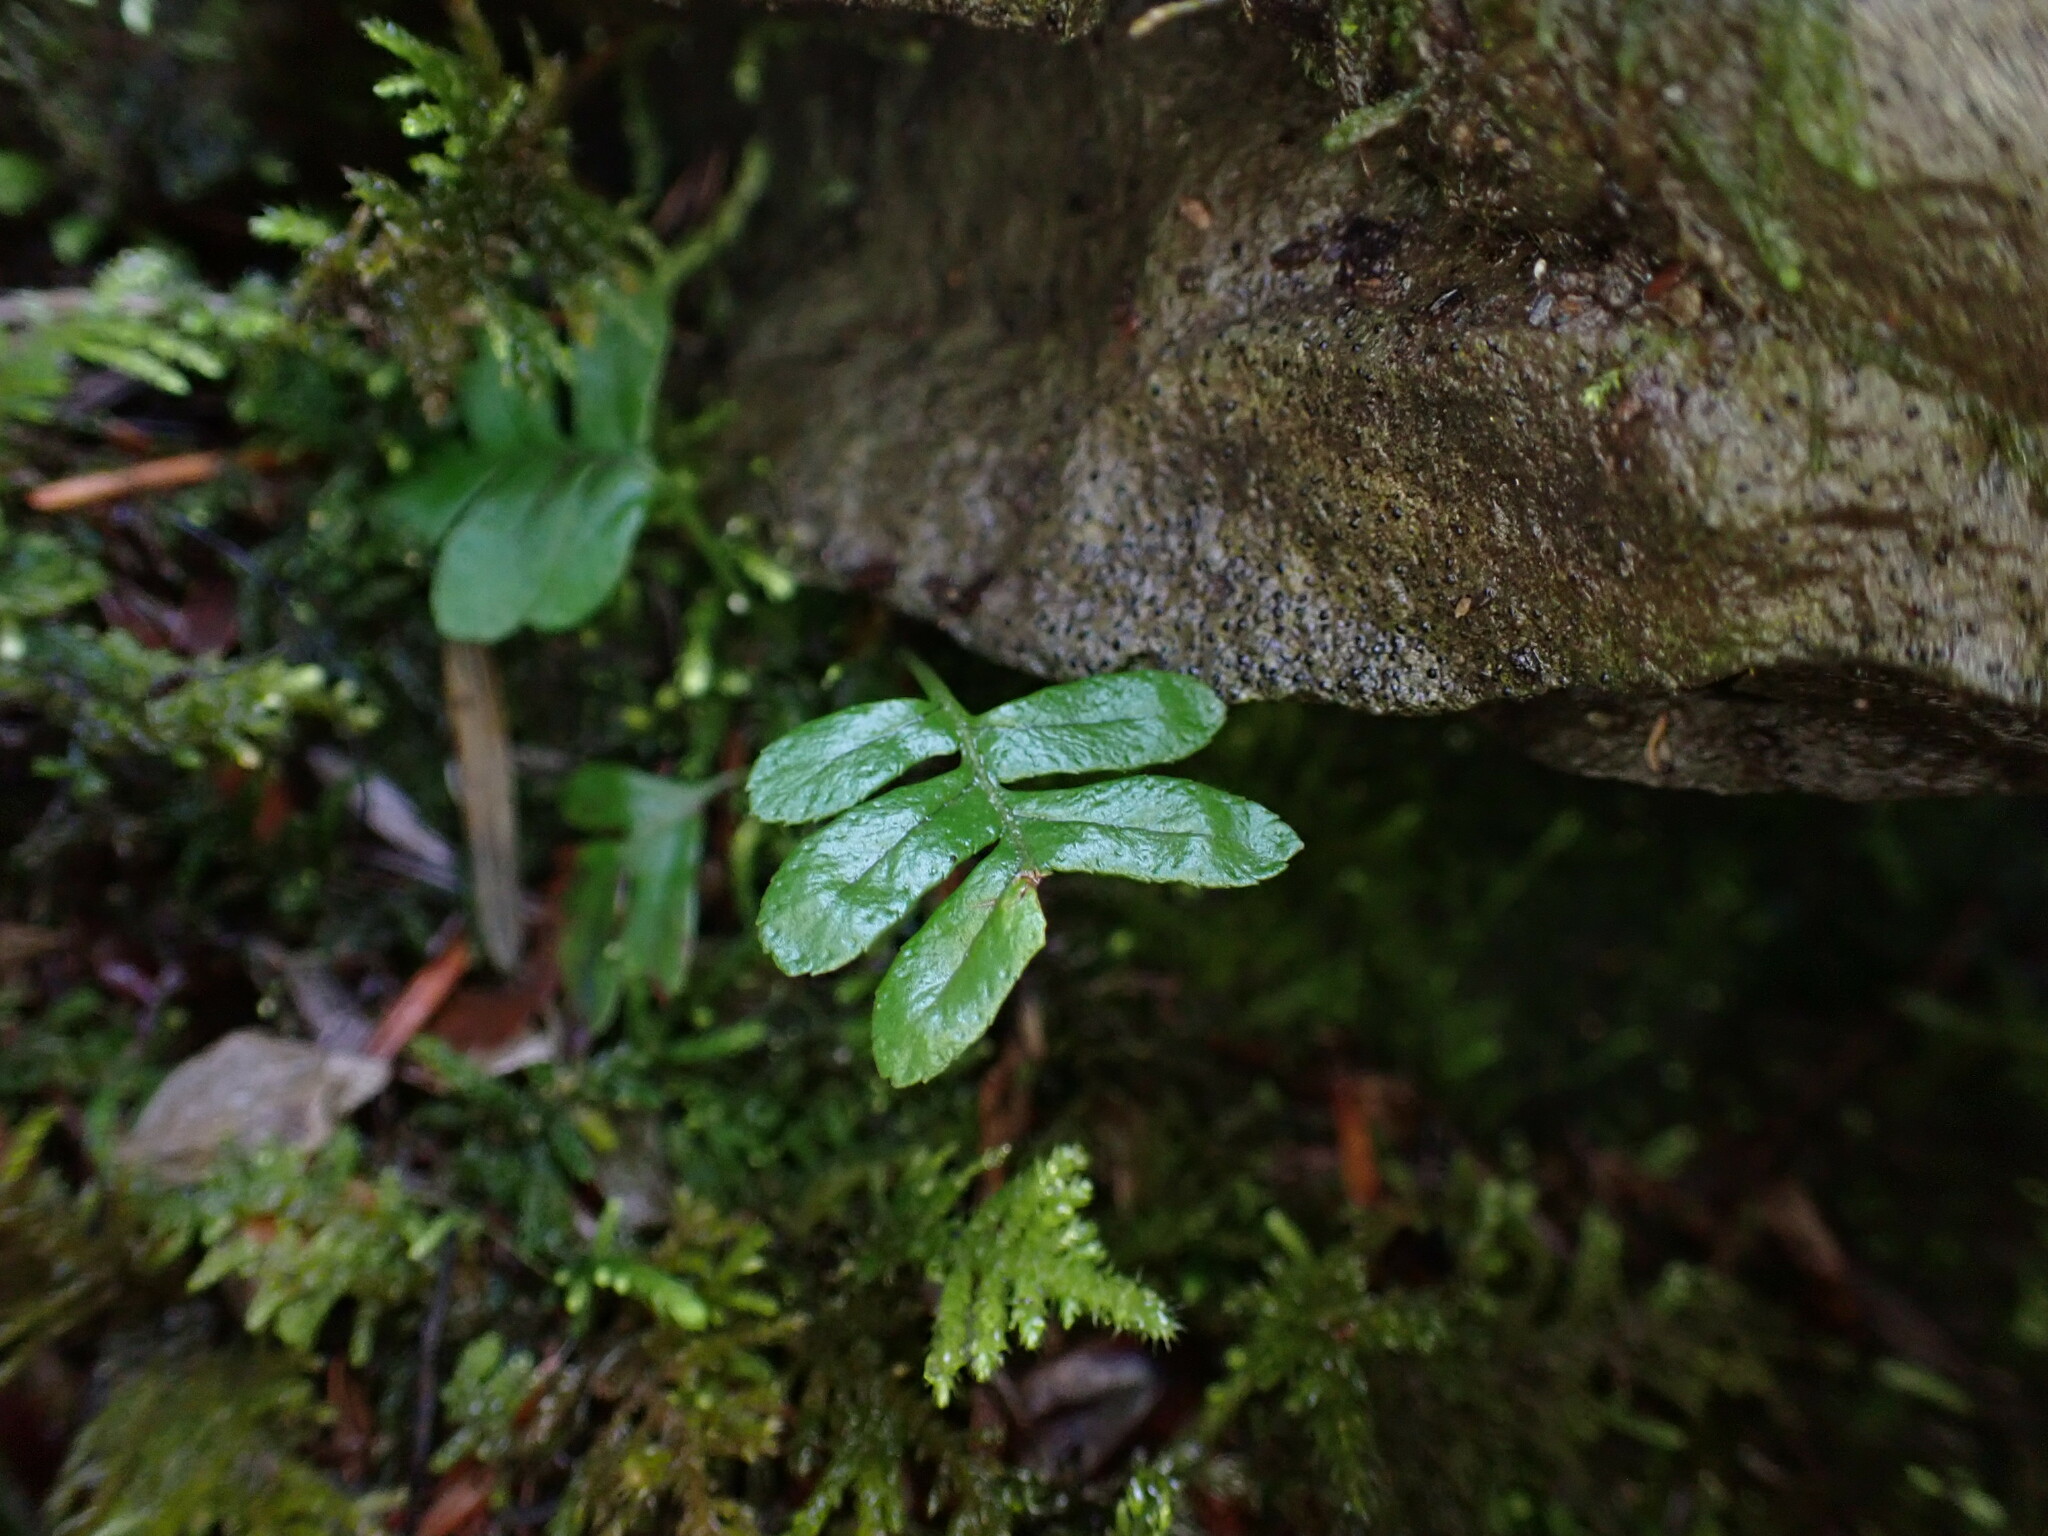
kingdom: Plantae
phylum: Tracheophyta
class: Polypodiopsida
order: Polypodiales
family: Polypodiaceae
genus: Polypodium
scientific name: Polypodium glycyrrhiza
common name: Licorice fern
